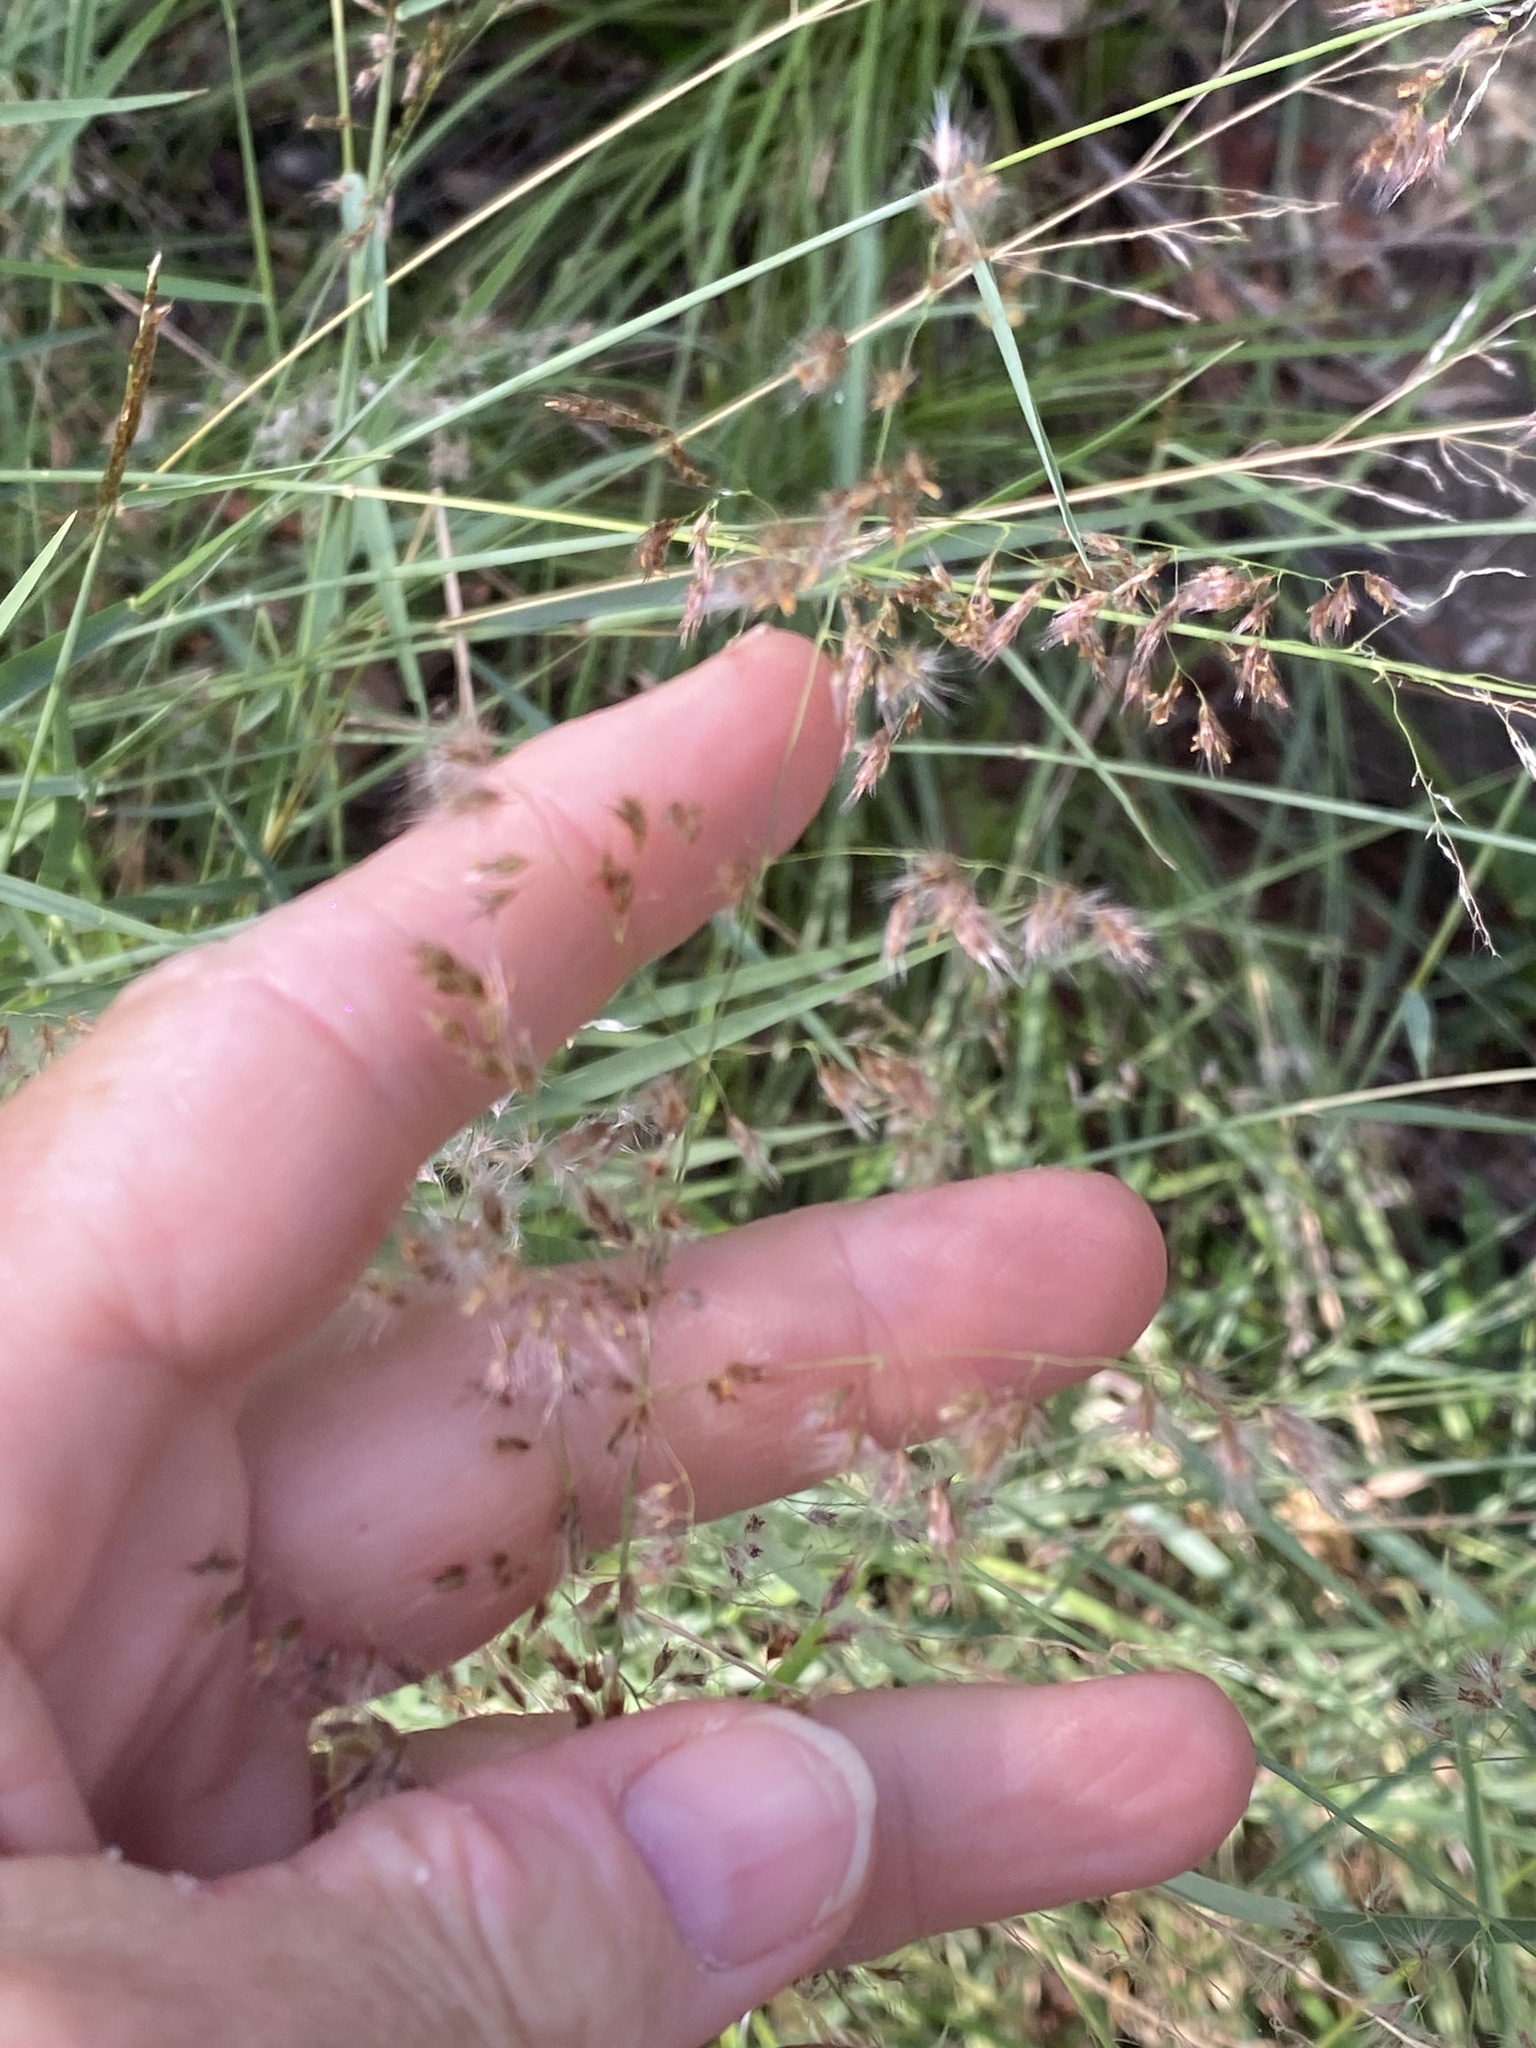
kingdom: Plantae
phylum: Tracheophyta
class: Liliopsida
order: Poales
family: Poaceae
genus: Melinis
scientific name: Melinis repens
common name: Rose natal grass
